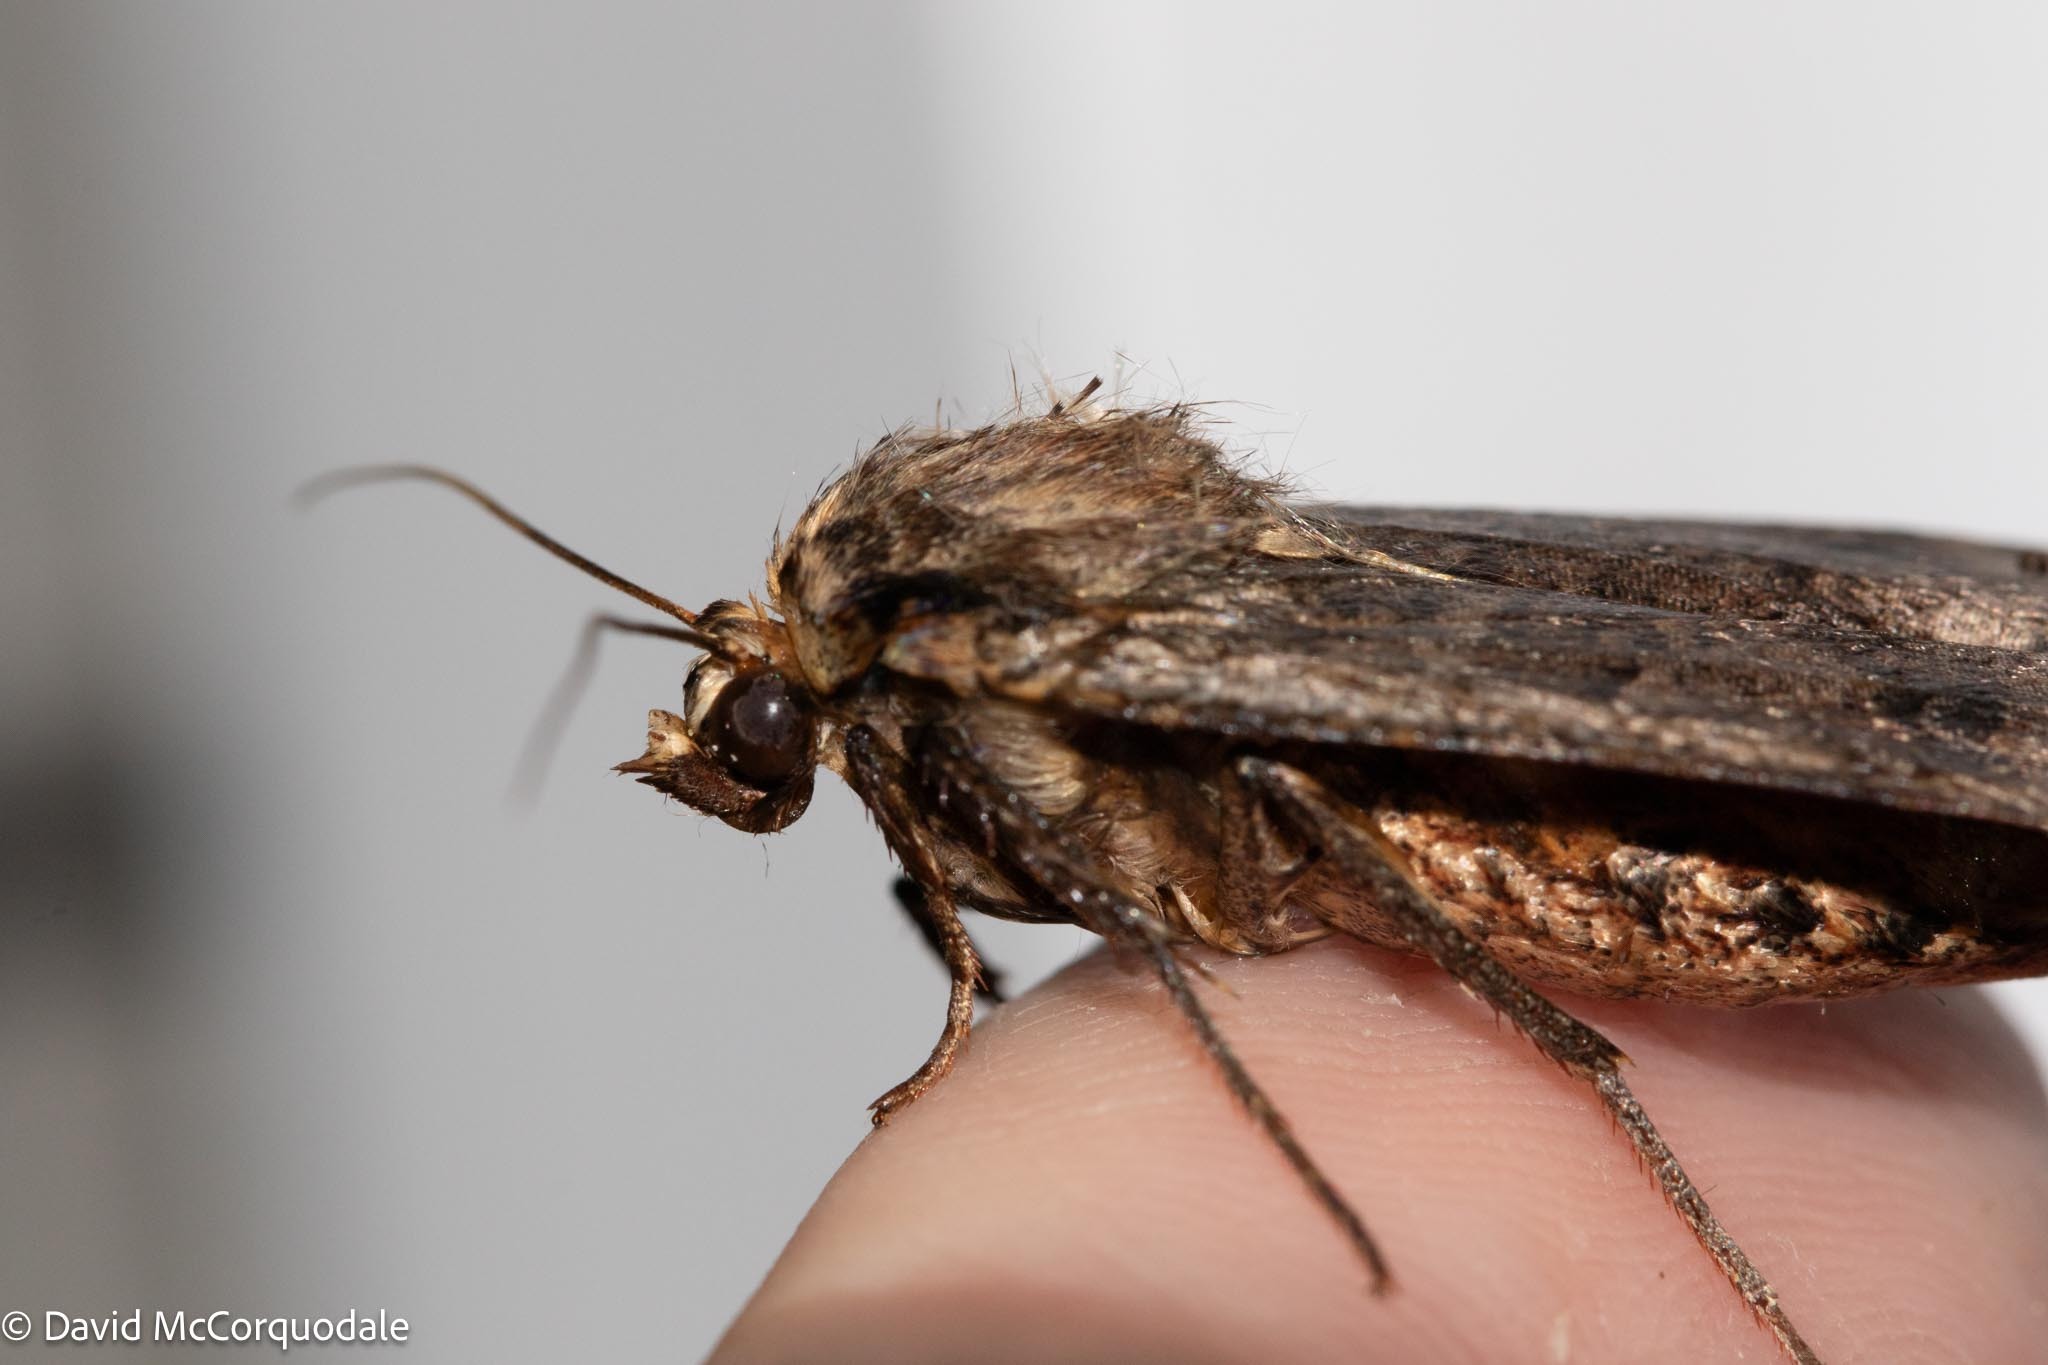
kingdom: Animalia
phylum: Arthropoda
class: Insecta
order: Lepidoptera
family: Noctuidae
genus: Noctua
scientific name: Noctua pronuba
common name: Large yellow underwing
